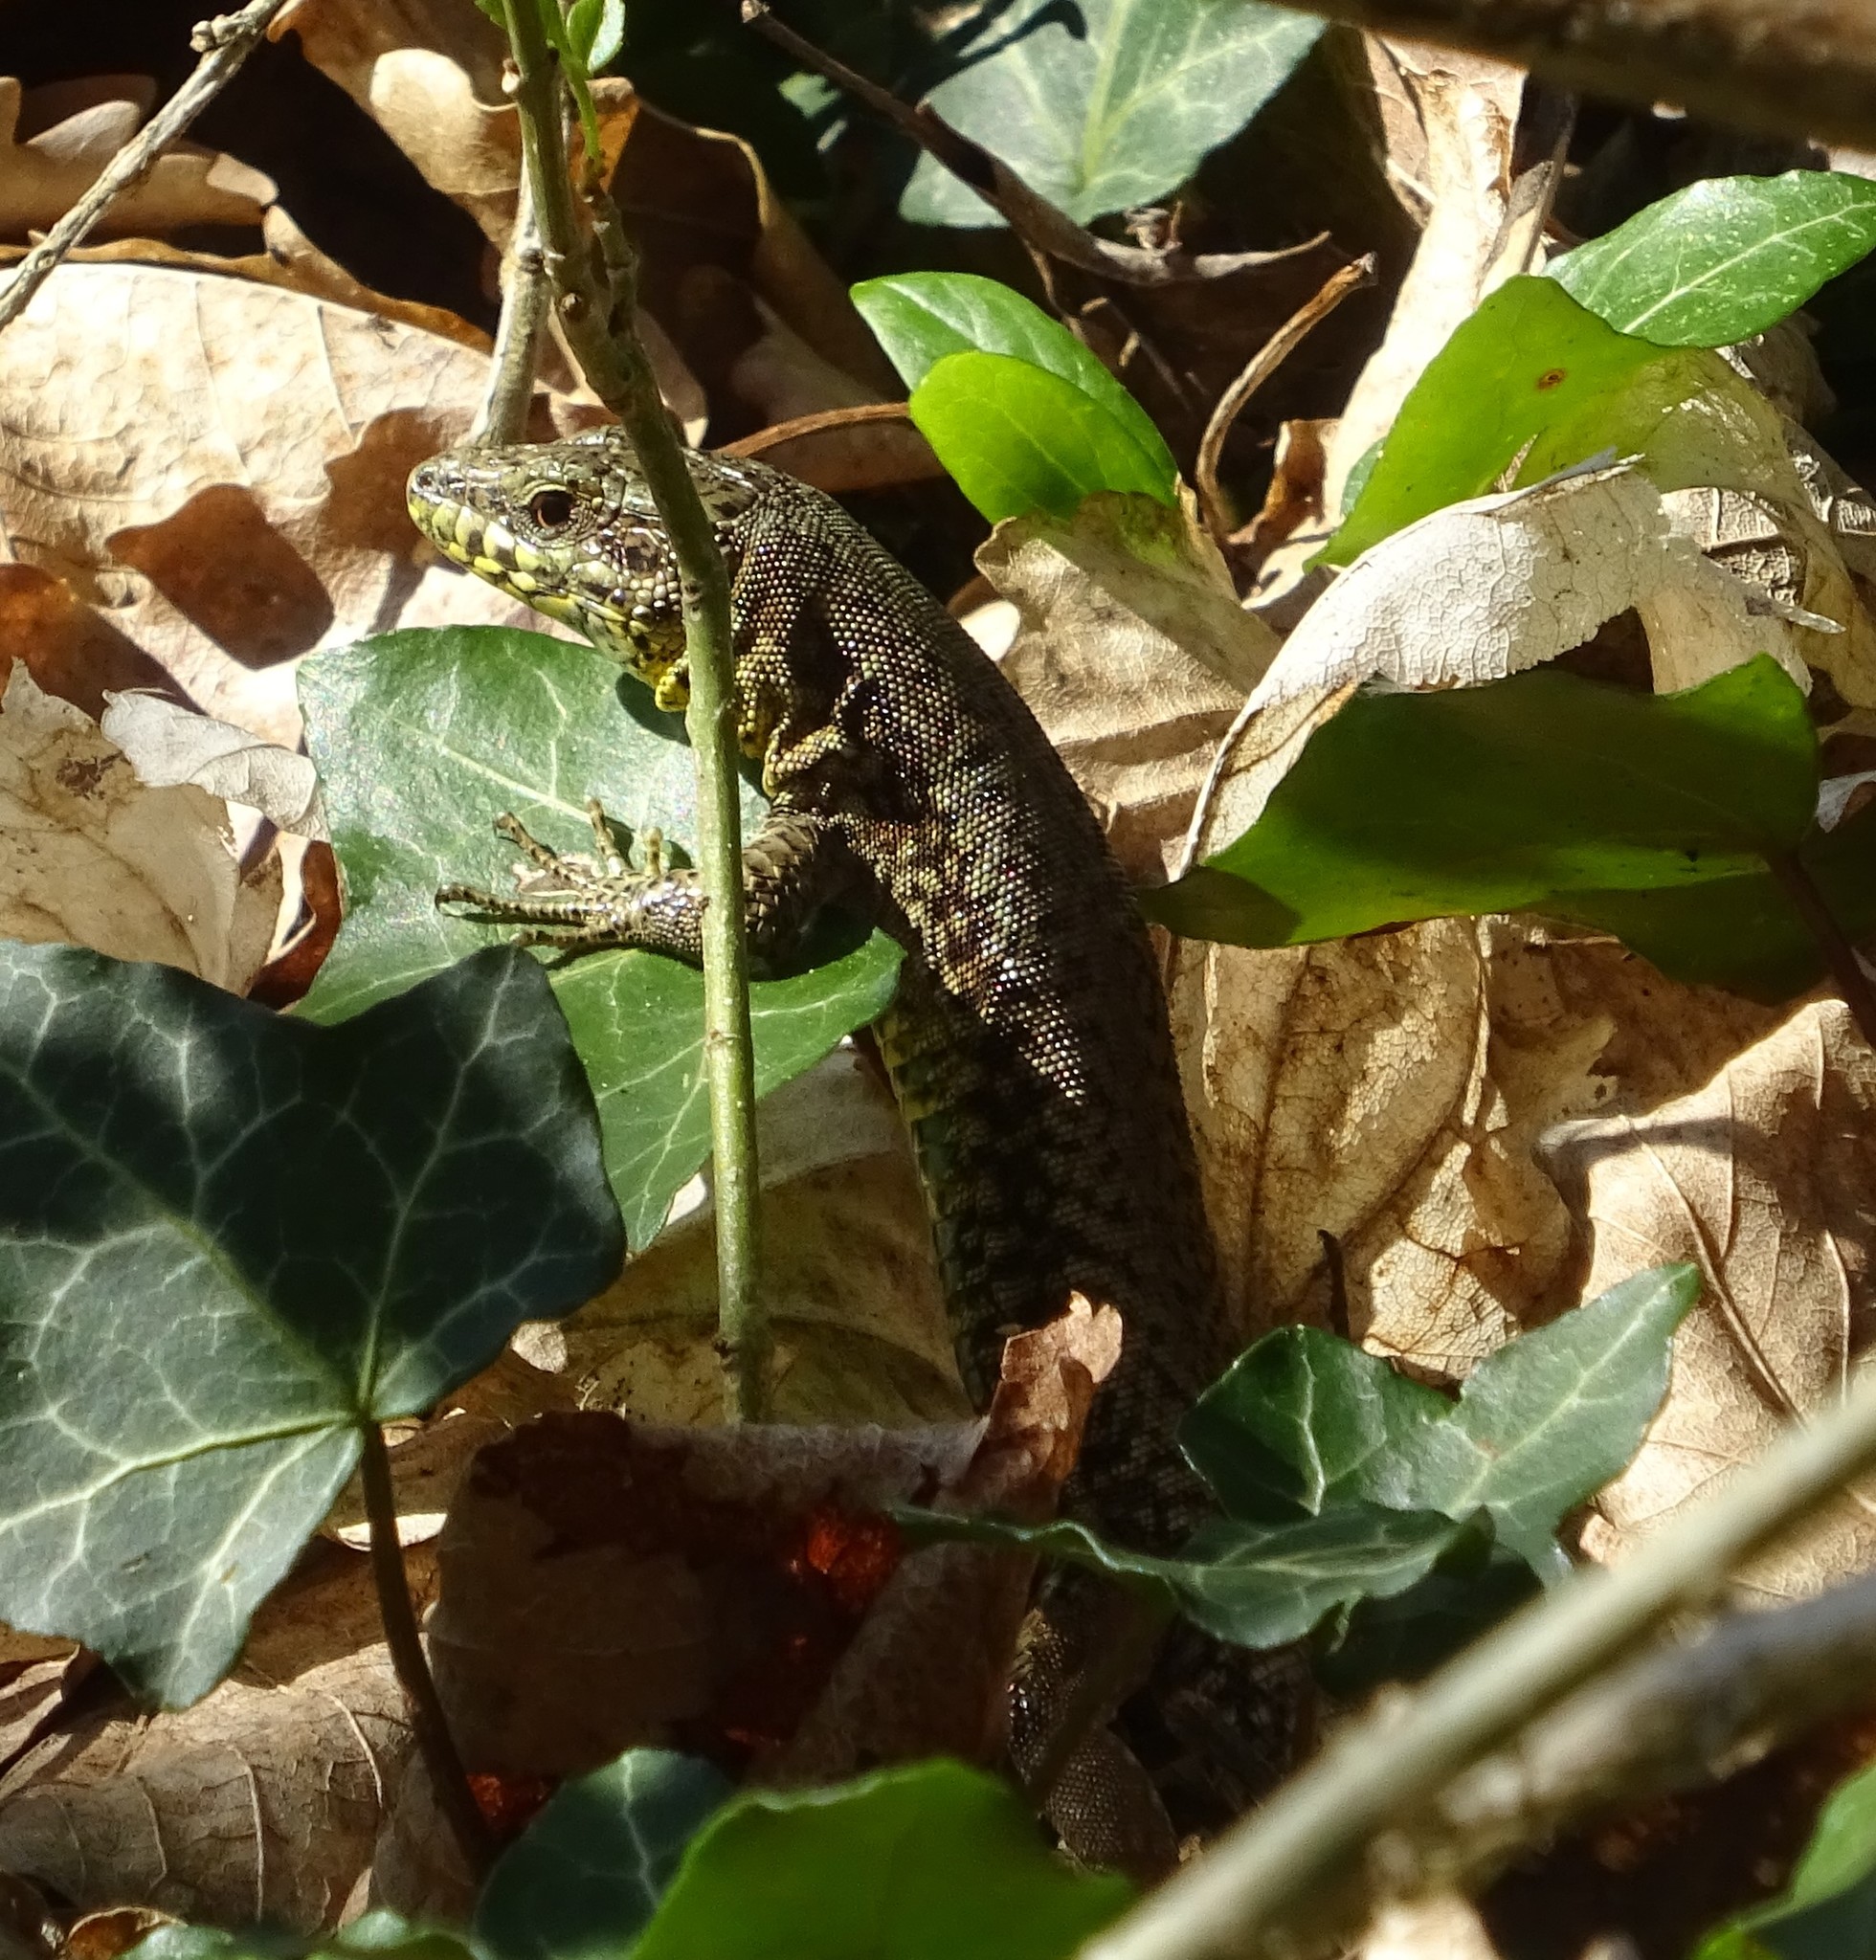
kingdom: Animalia
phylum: Chordata
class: Squamata
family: Lacertidae
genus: Podarcis
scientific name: Podarcis muralis
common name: Common wall lizard
